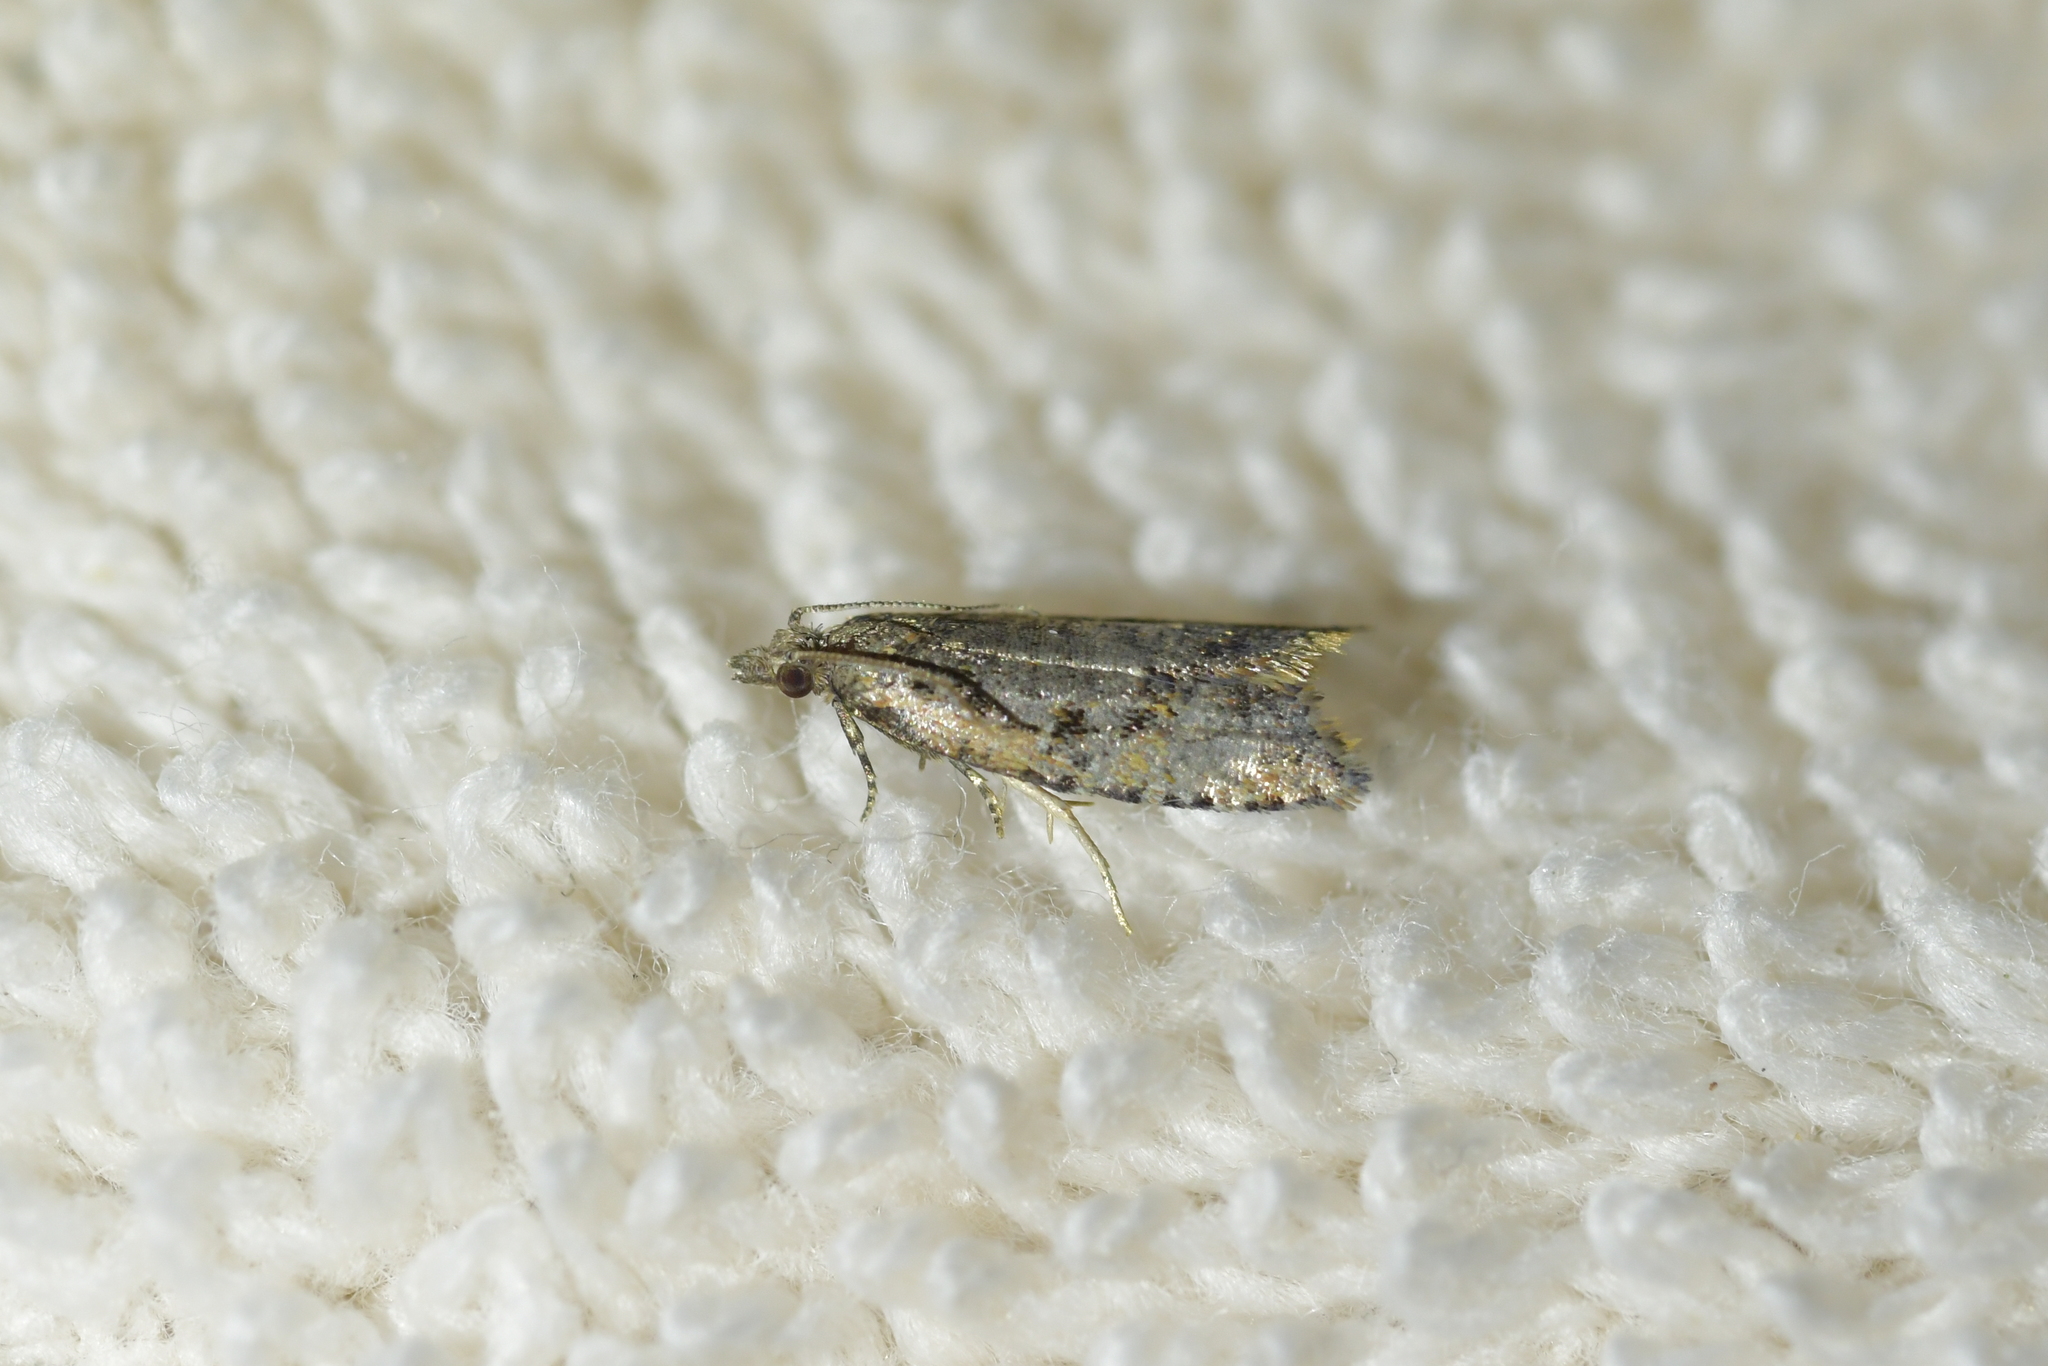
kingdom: Animalia
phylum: Arthropoda
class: Insecta
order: Lepidoptera
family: Tortricidae
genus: Capua
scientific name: Capua semiferana
